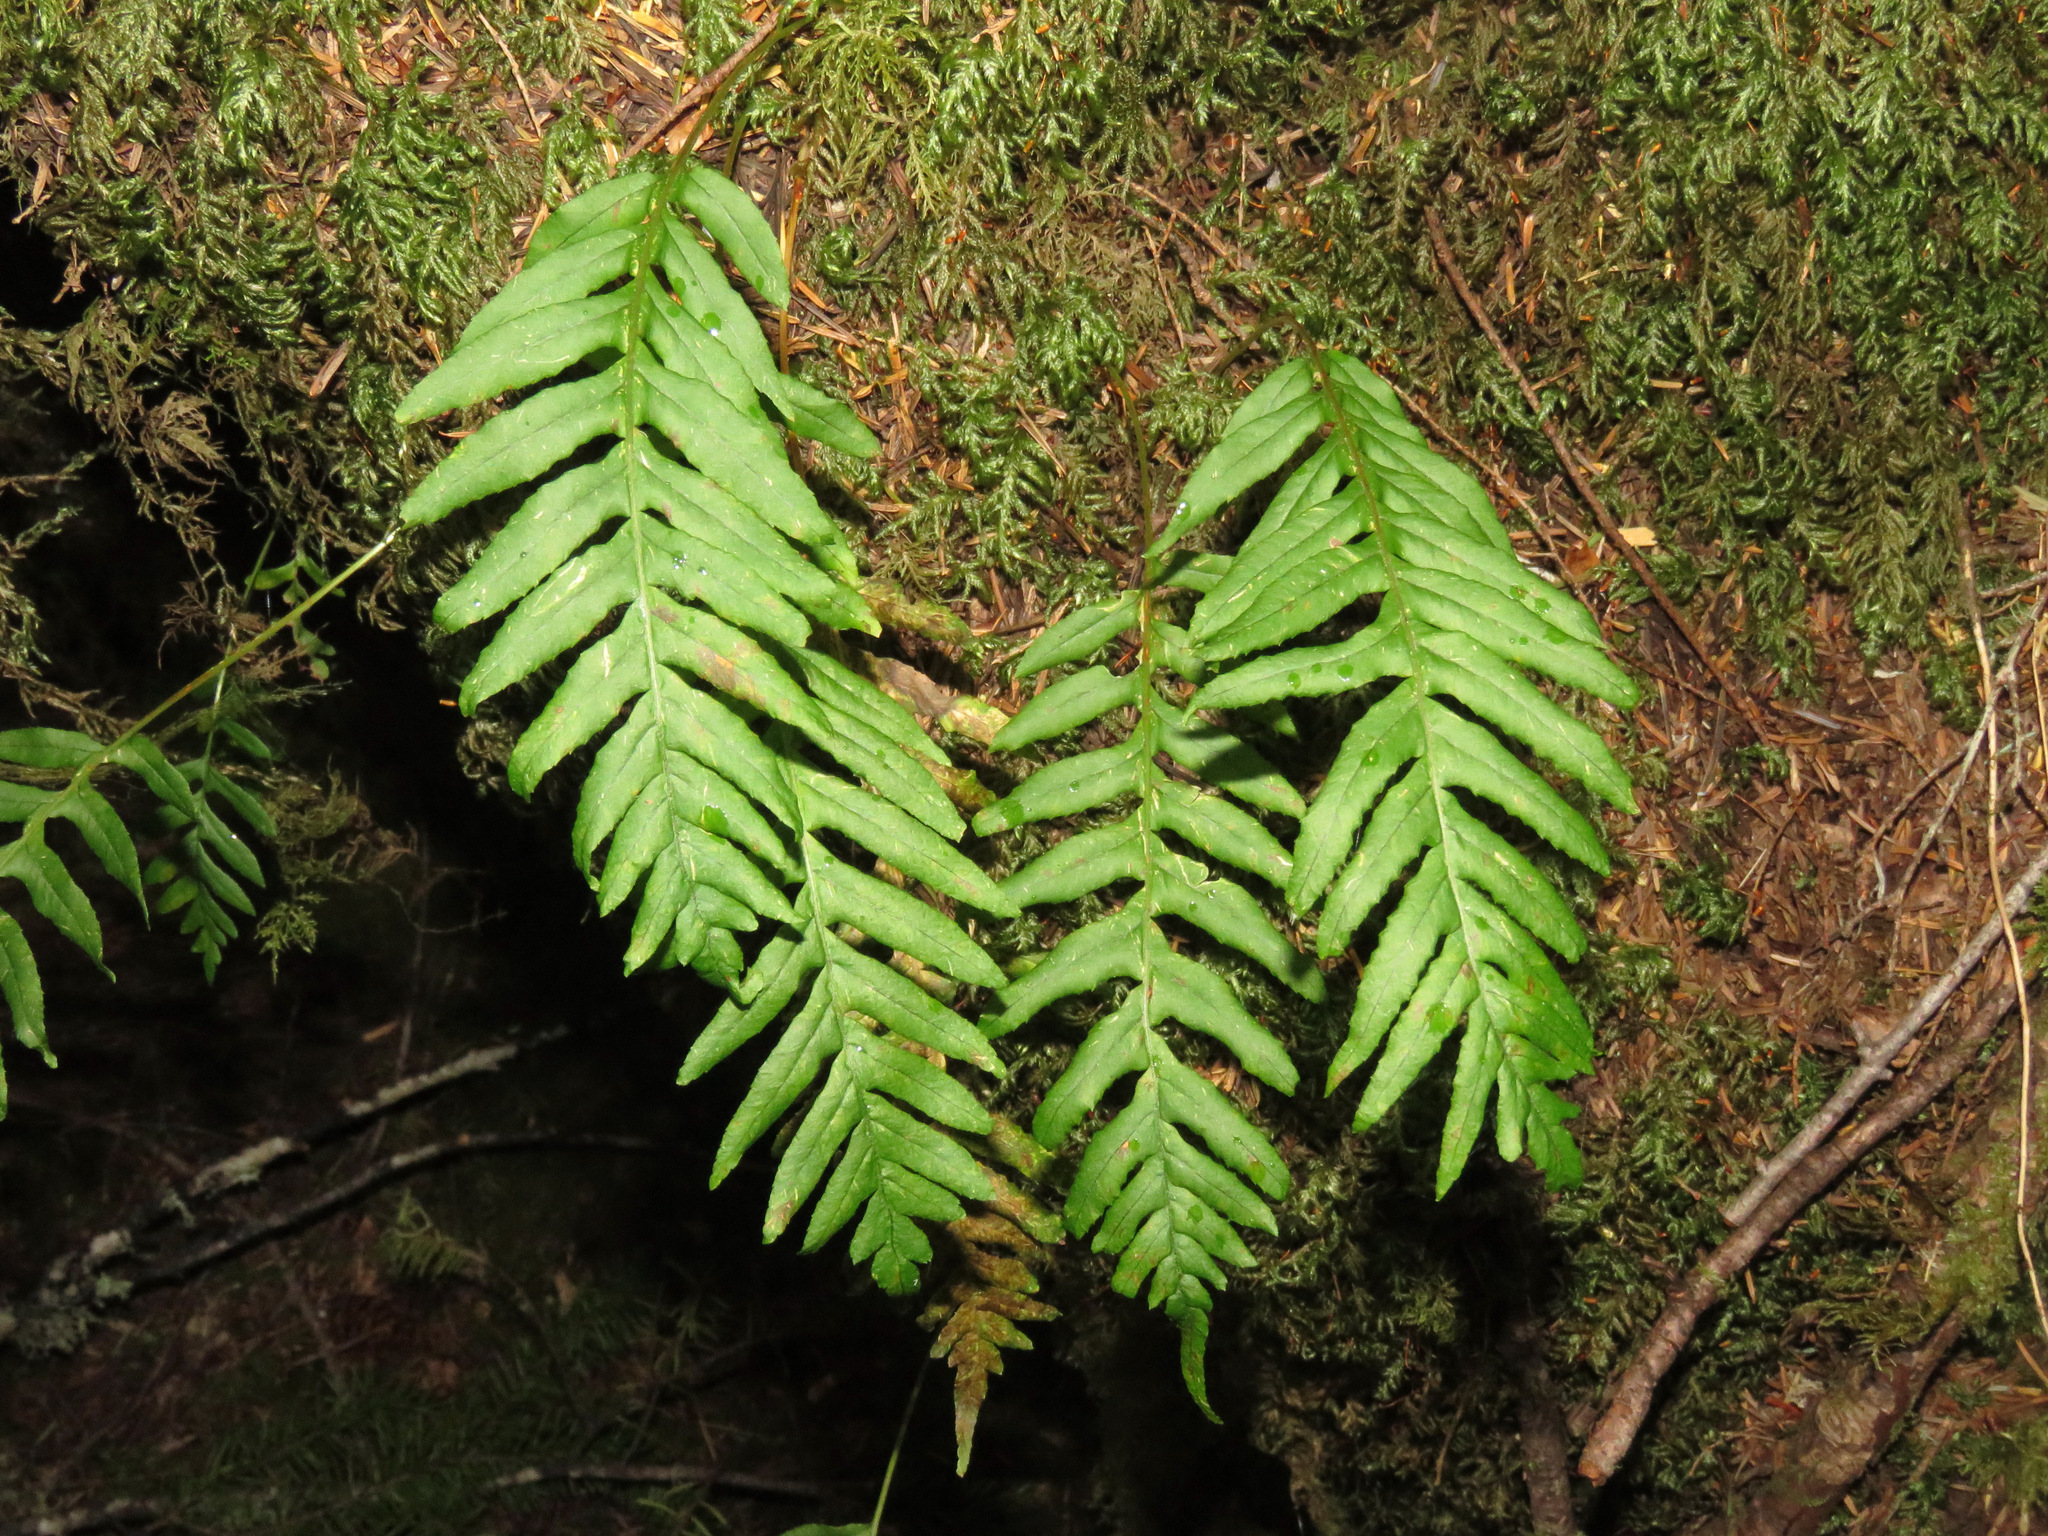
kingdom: Plantae
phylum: Tracheophyta
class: Polypodiopsida
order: Polypodiales
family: Polypodiaceae
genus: Polypodium
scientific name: Polypodium glycyrrhiza
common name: Licorice fern
